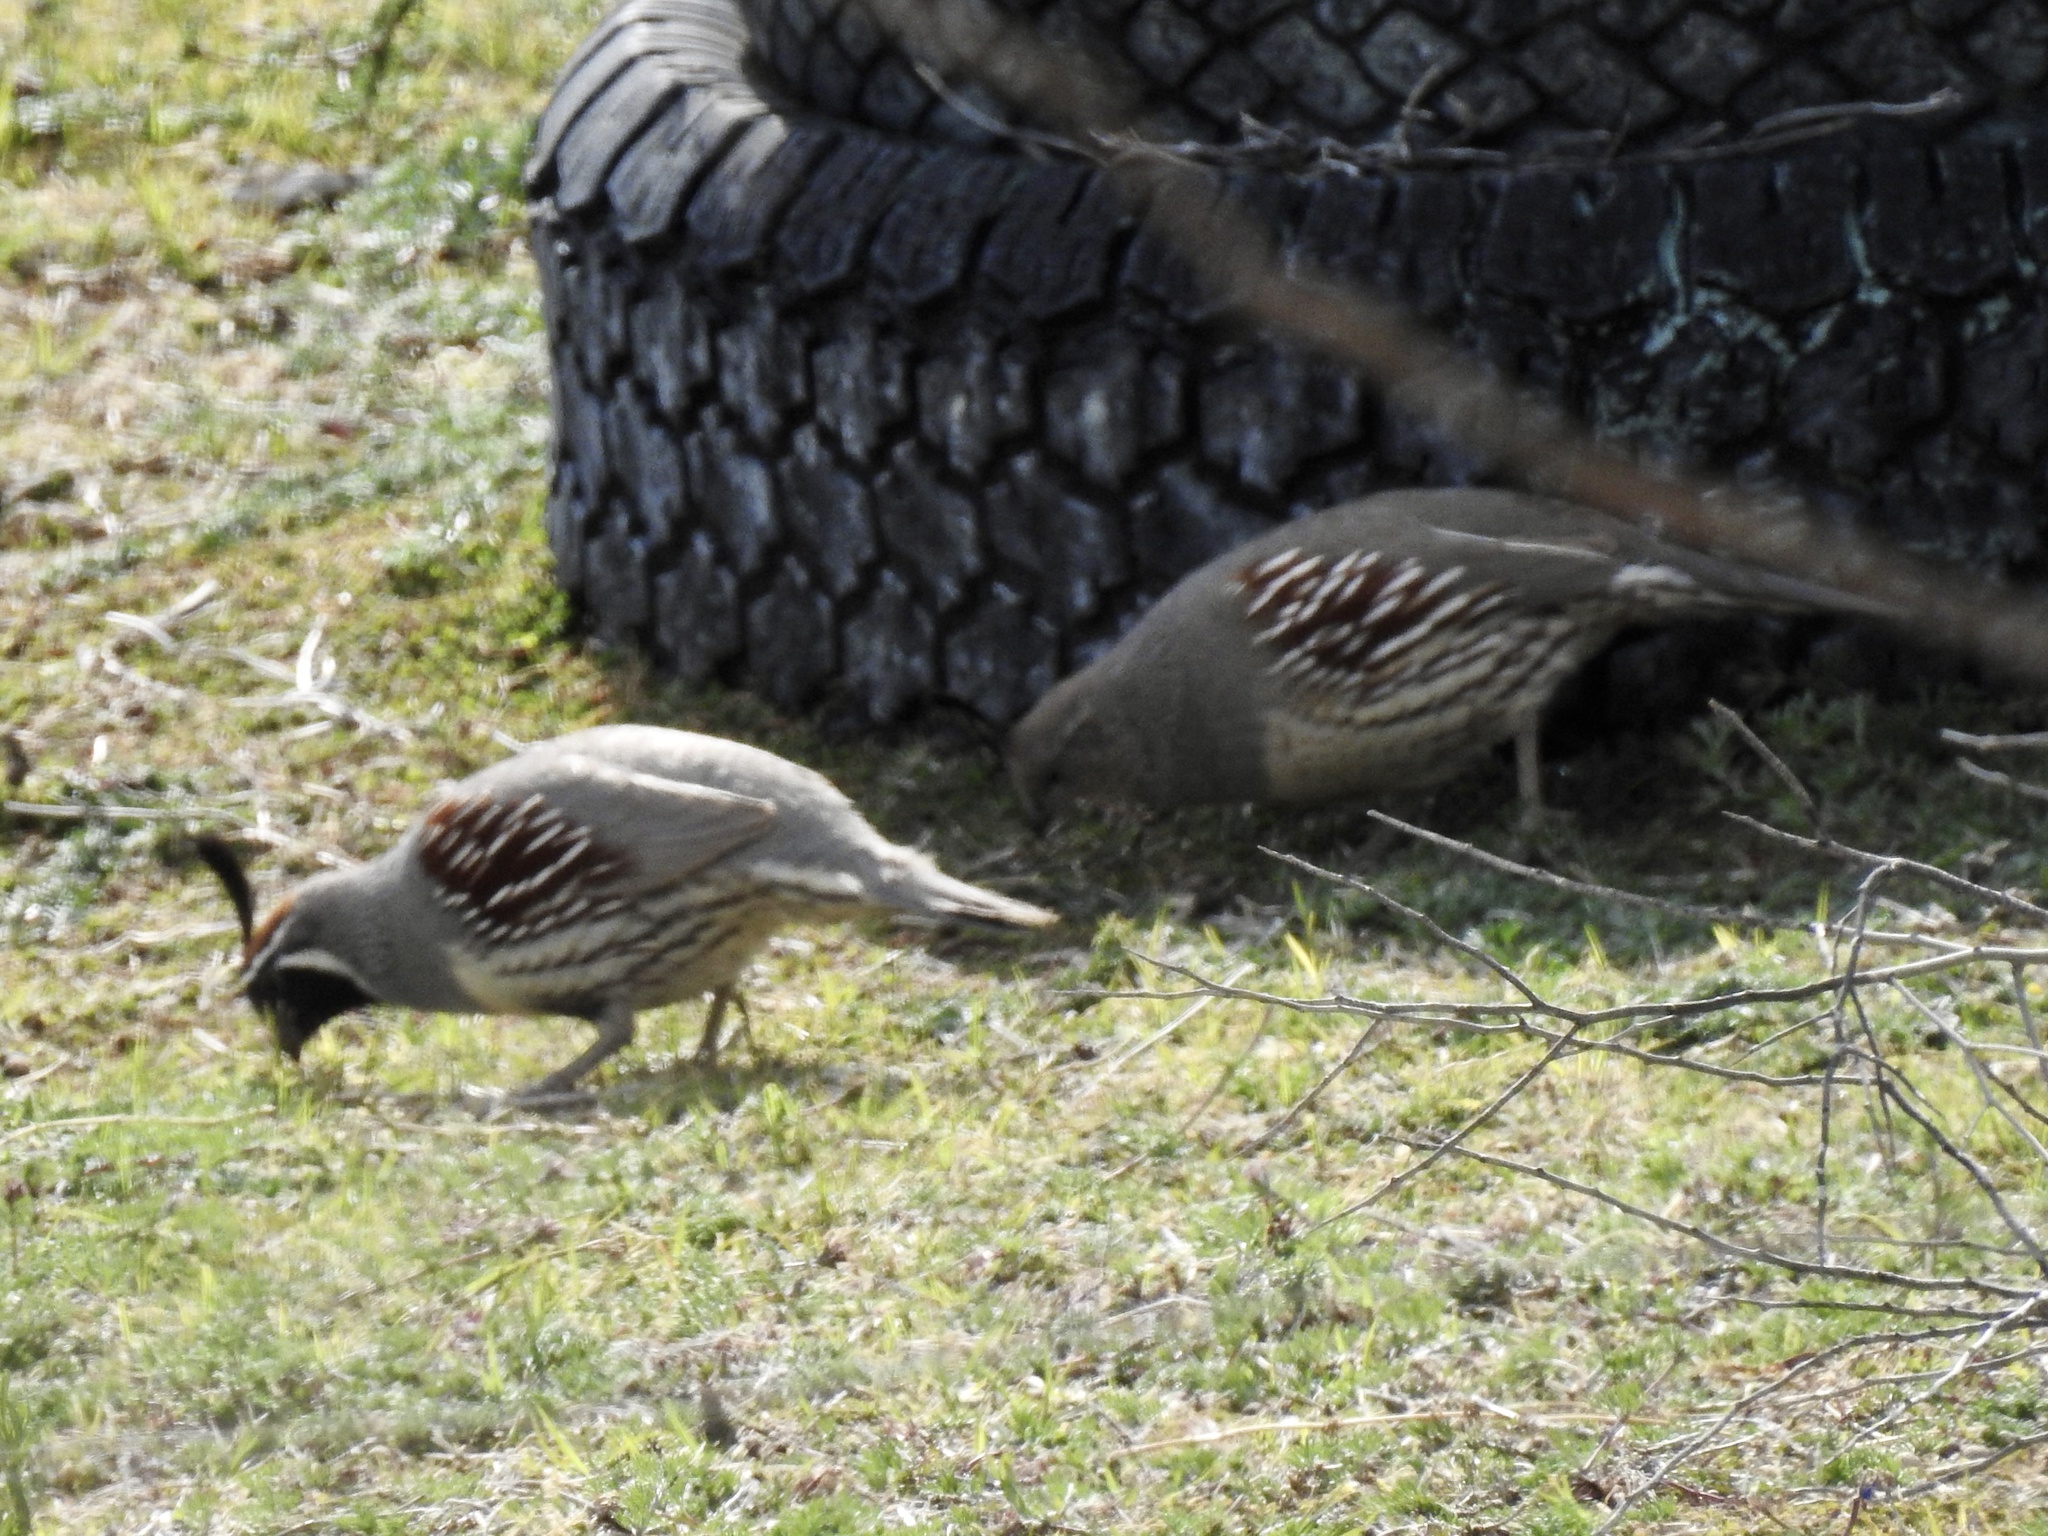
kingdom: Animalia
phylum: Chordata
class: Aves
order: Galliformes
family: Odontophoridae
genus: Callipepla
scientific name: Callipepla gambelii
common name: Gambel's quail
